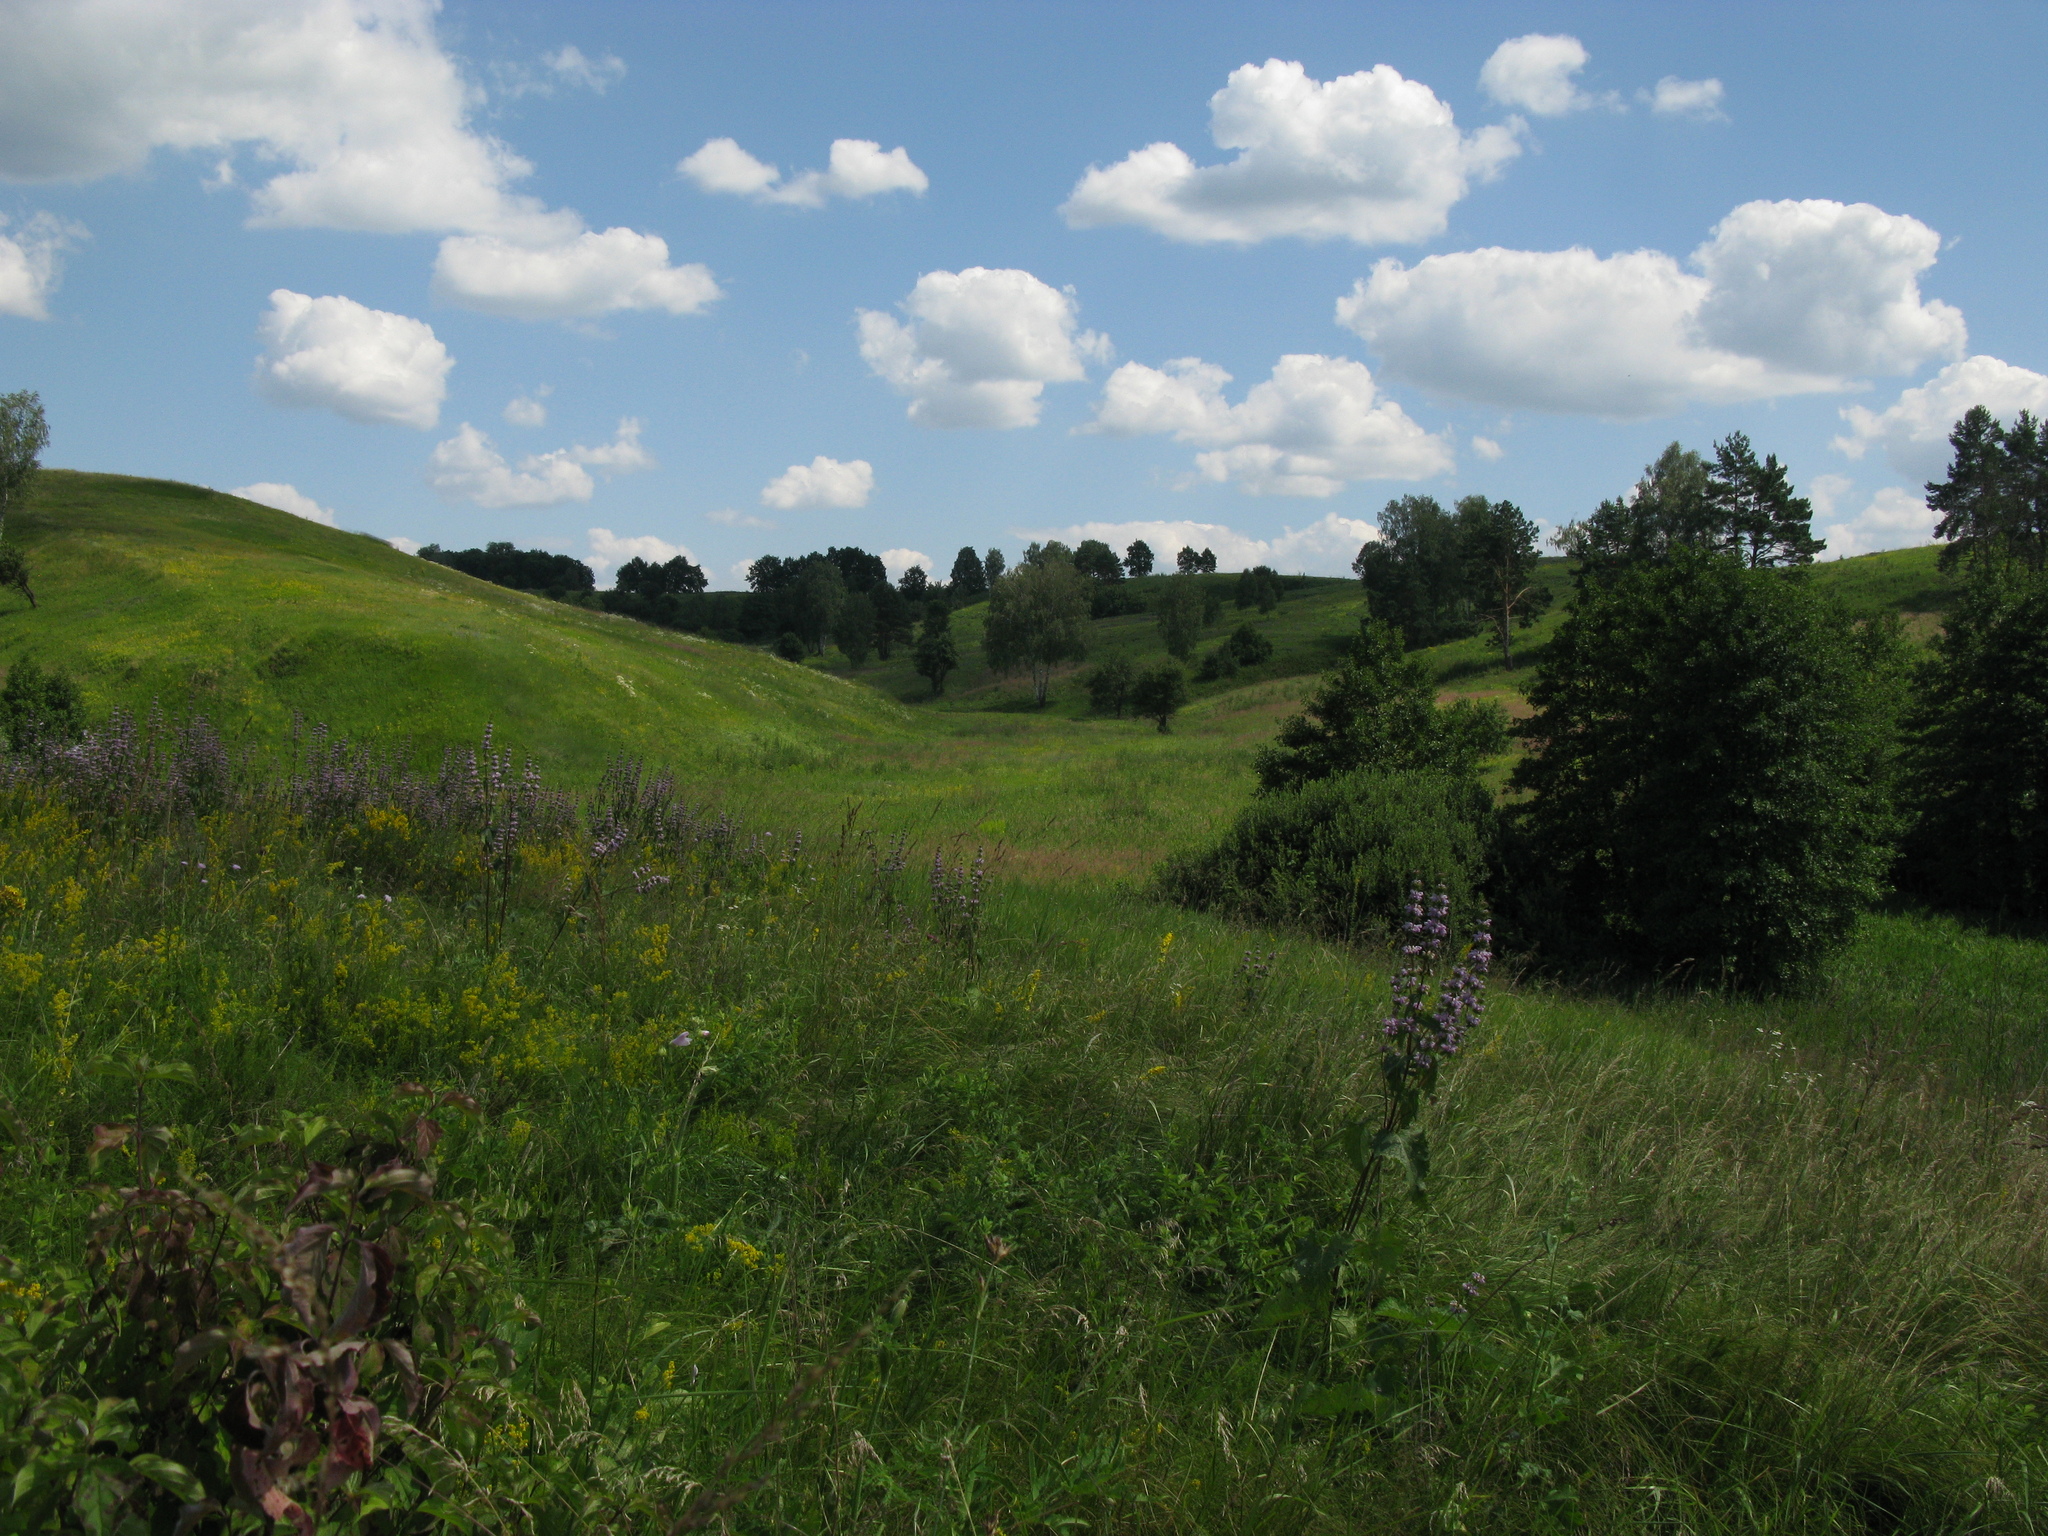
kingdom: Plantae
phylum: Tracheophyta
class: Magnoliopsida
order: Lamiales
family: Lamiaceae
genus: Phlomoides
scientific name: Phlomoides tuberosa
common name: Tuberous jerusalem sage
